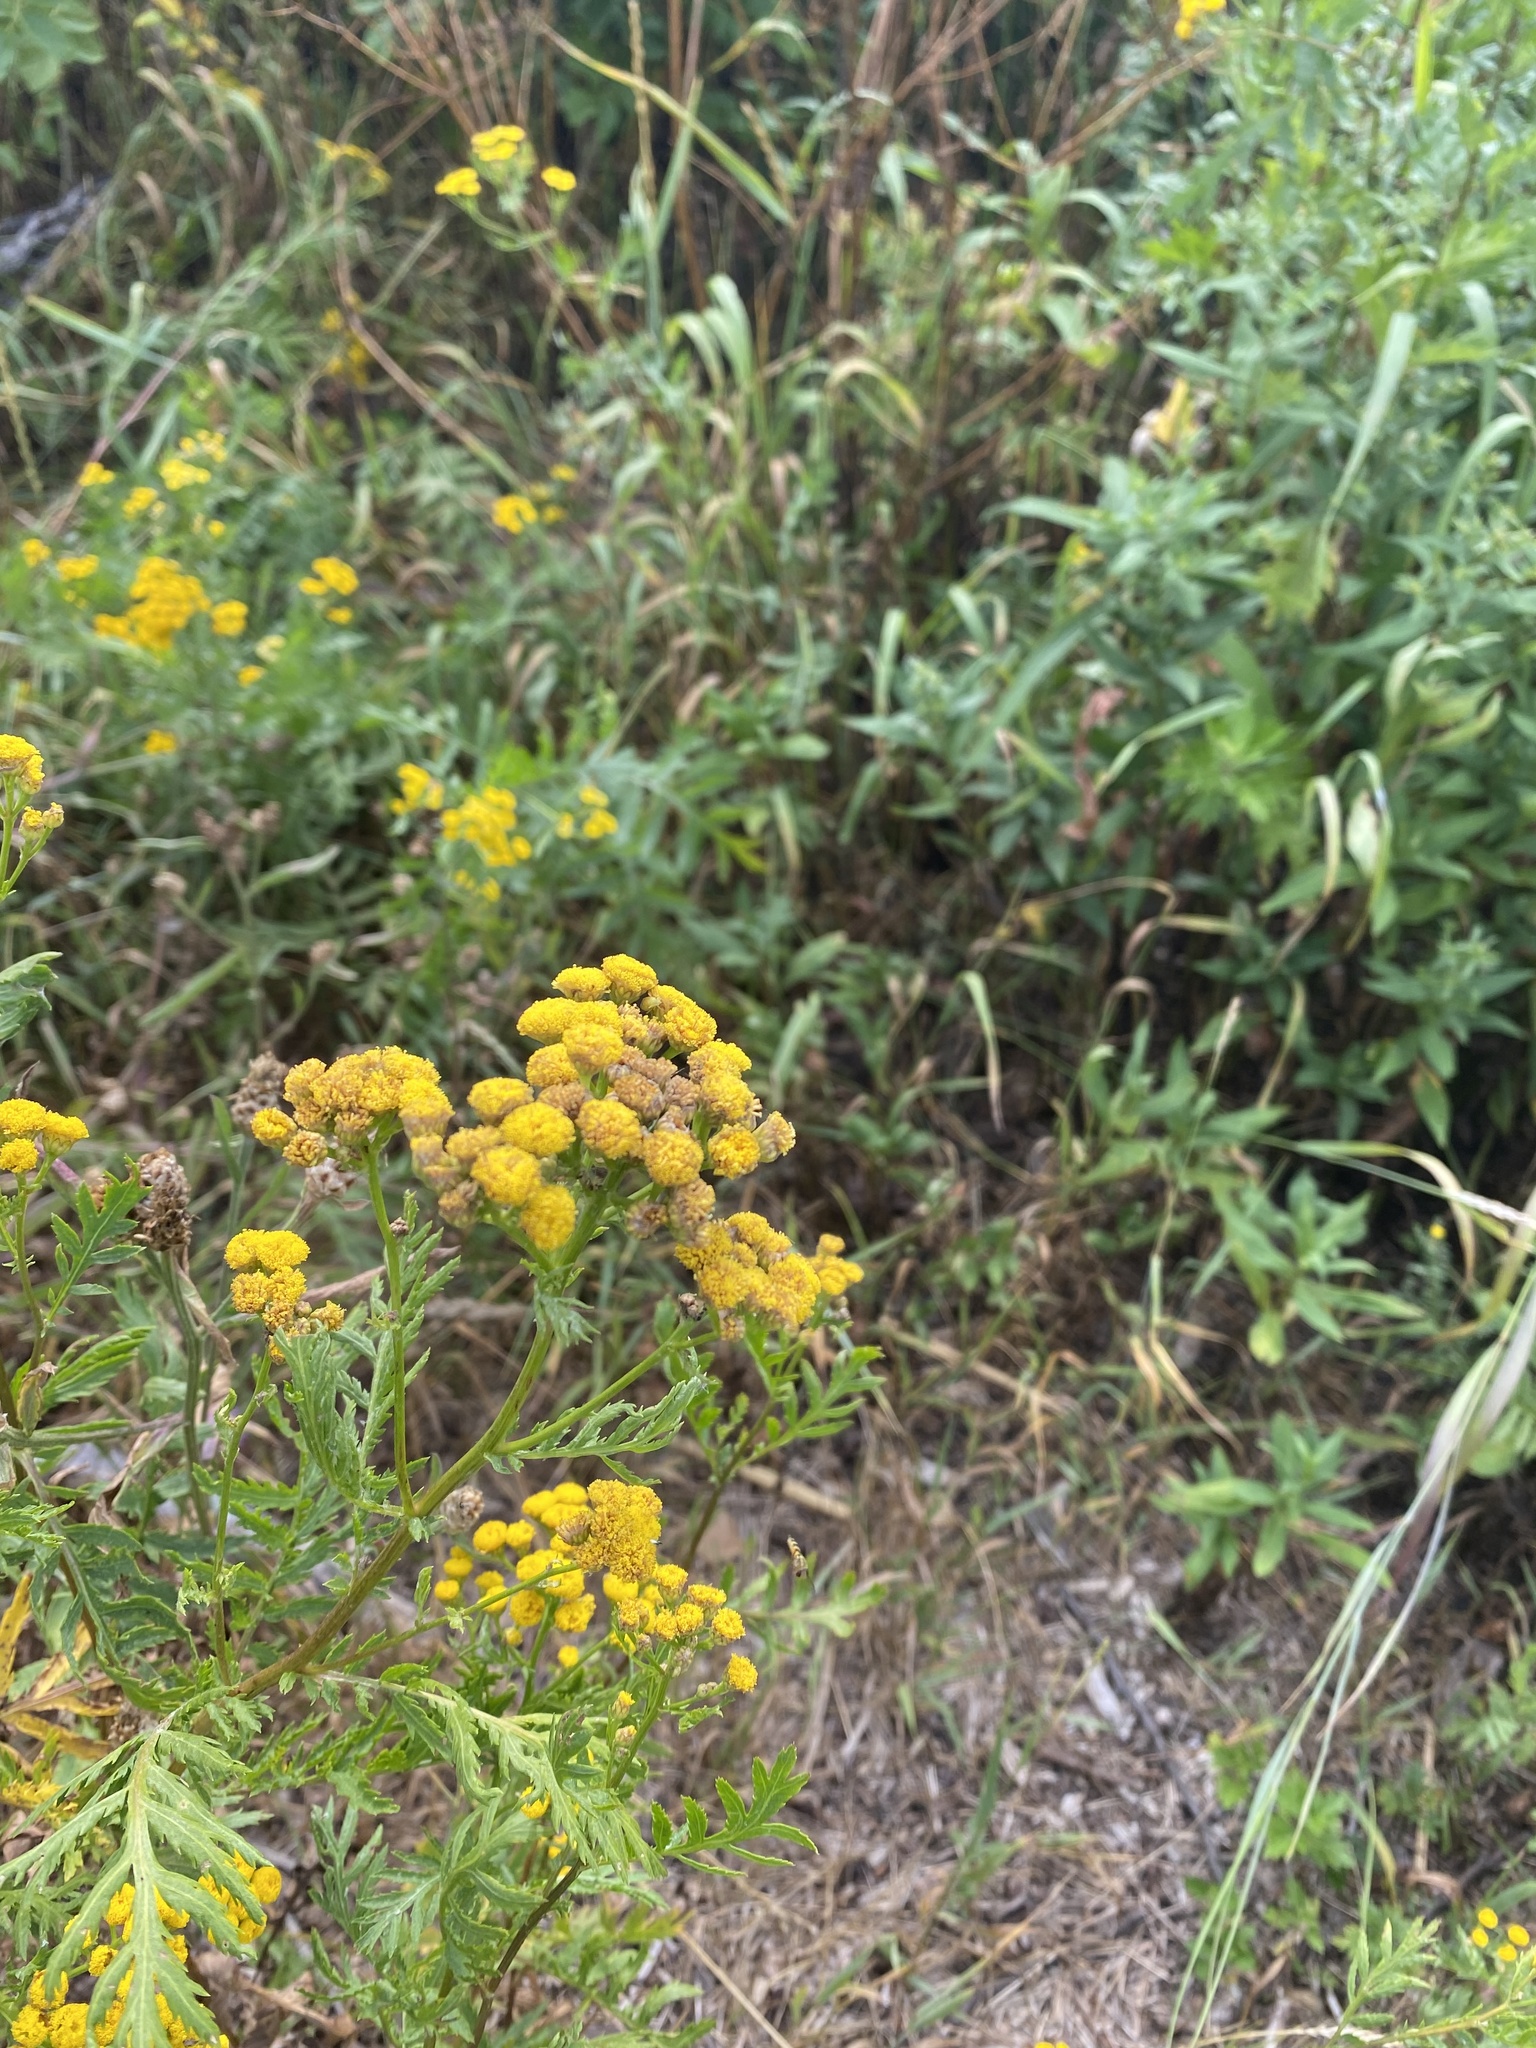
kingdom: Plantae
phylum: Tracheophyta
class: Magnoliopsida
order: Asterales
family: Asteraceae
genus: Tanacetum
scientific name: Tanacetum vulgare
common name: Common tansy
